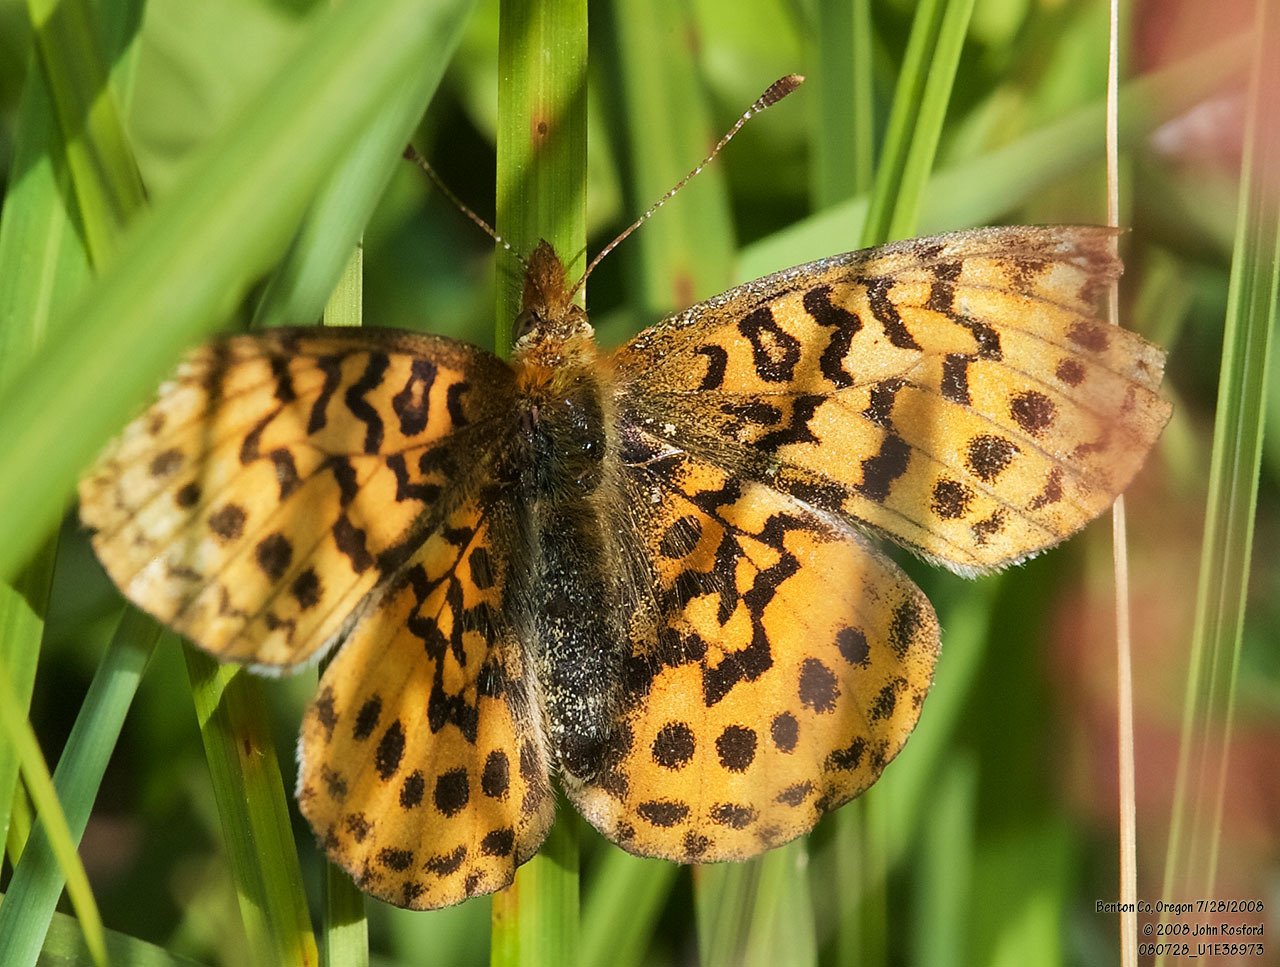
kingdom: Animalia
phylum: Arthropoda
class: Insecta
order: Lepidoptera
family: Nymphalidae
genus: Boloria
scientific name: Boloria epithore
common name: Pacific fritillary
